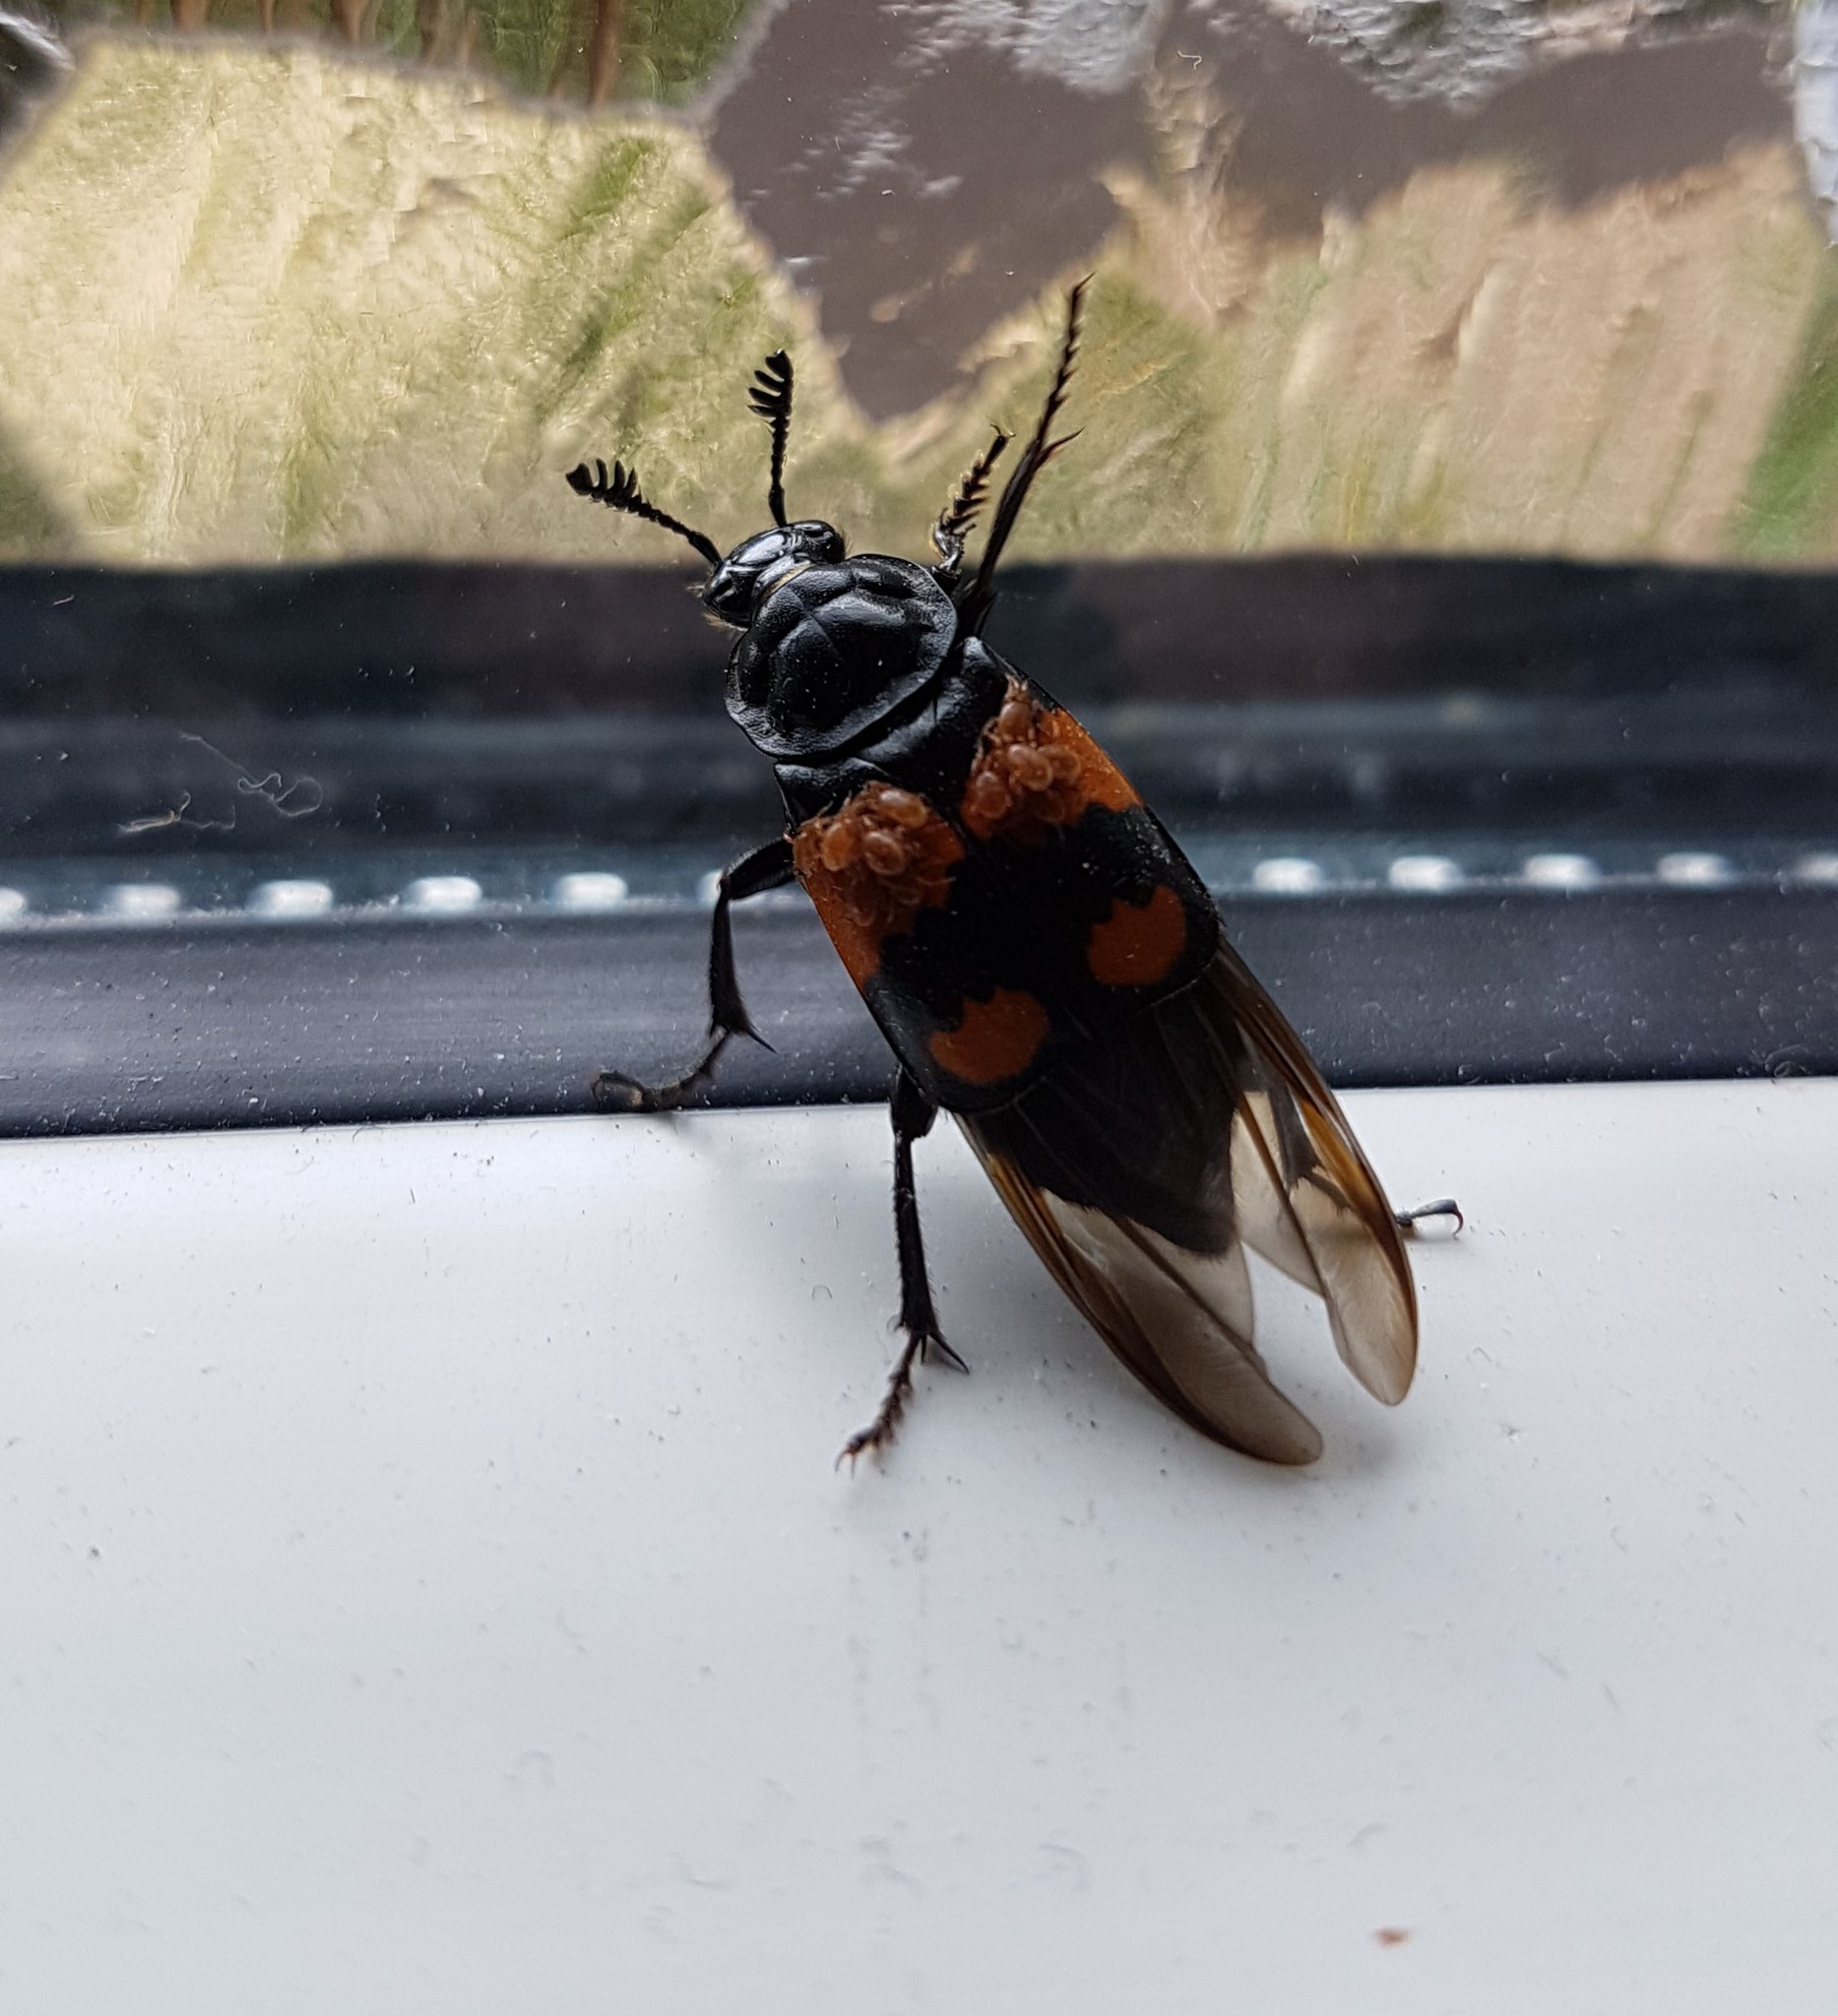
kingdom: Animalia
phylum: Arthropoda
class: Insecta
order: Coleoptera
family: Staphylinidae
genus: Nicrophorus
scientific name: Nicrophorus vespilloides
